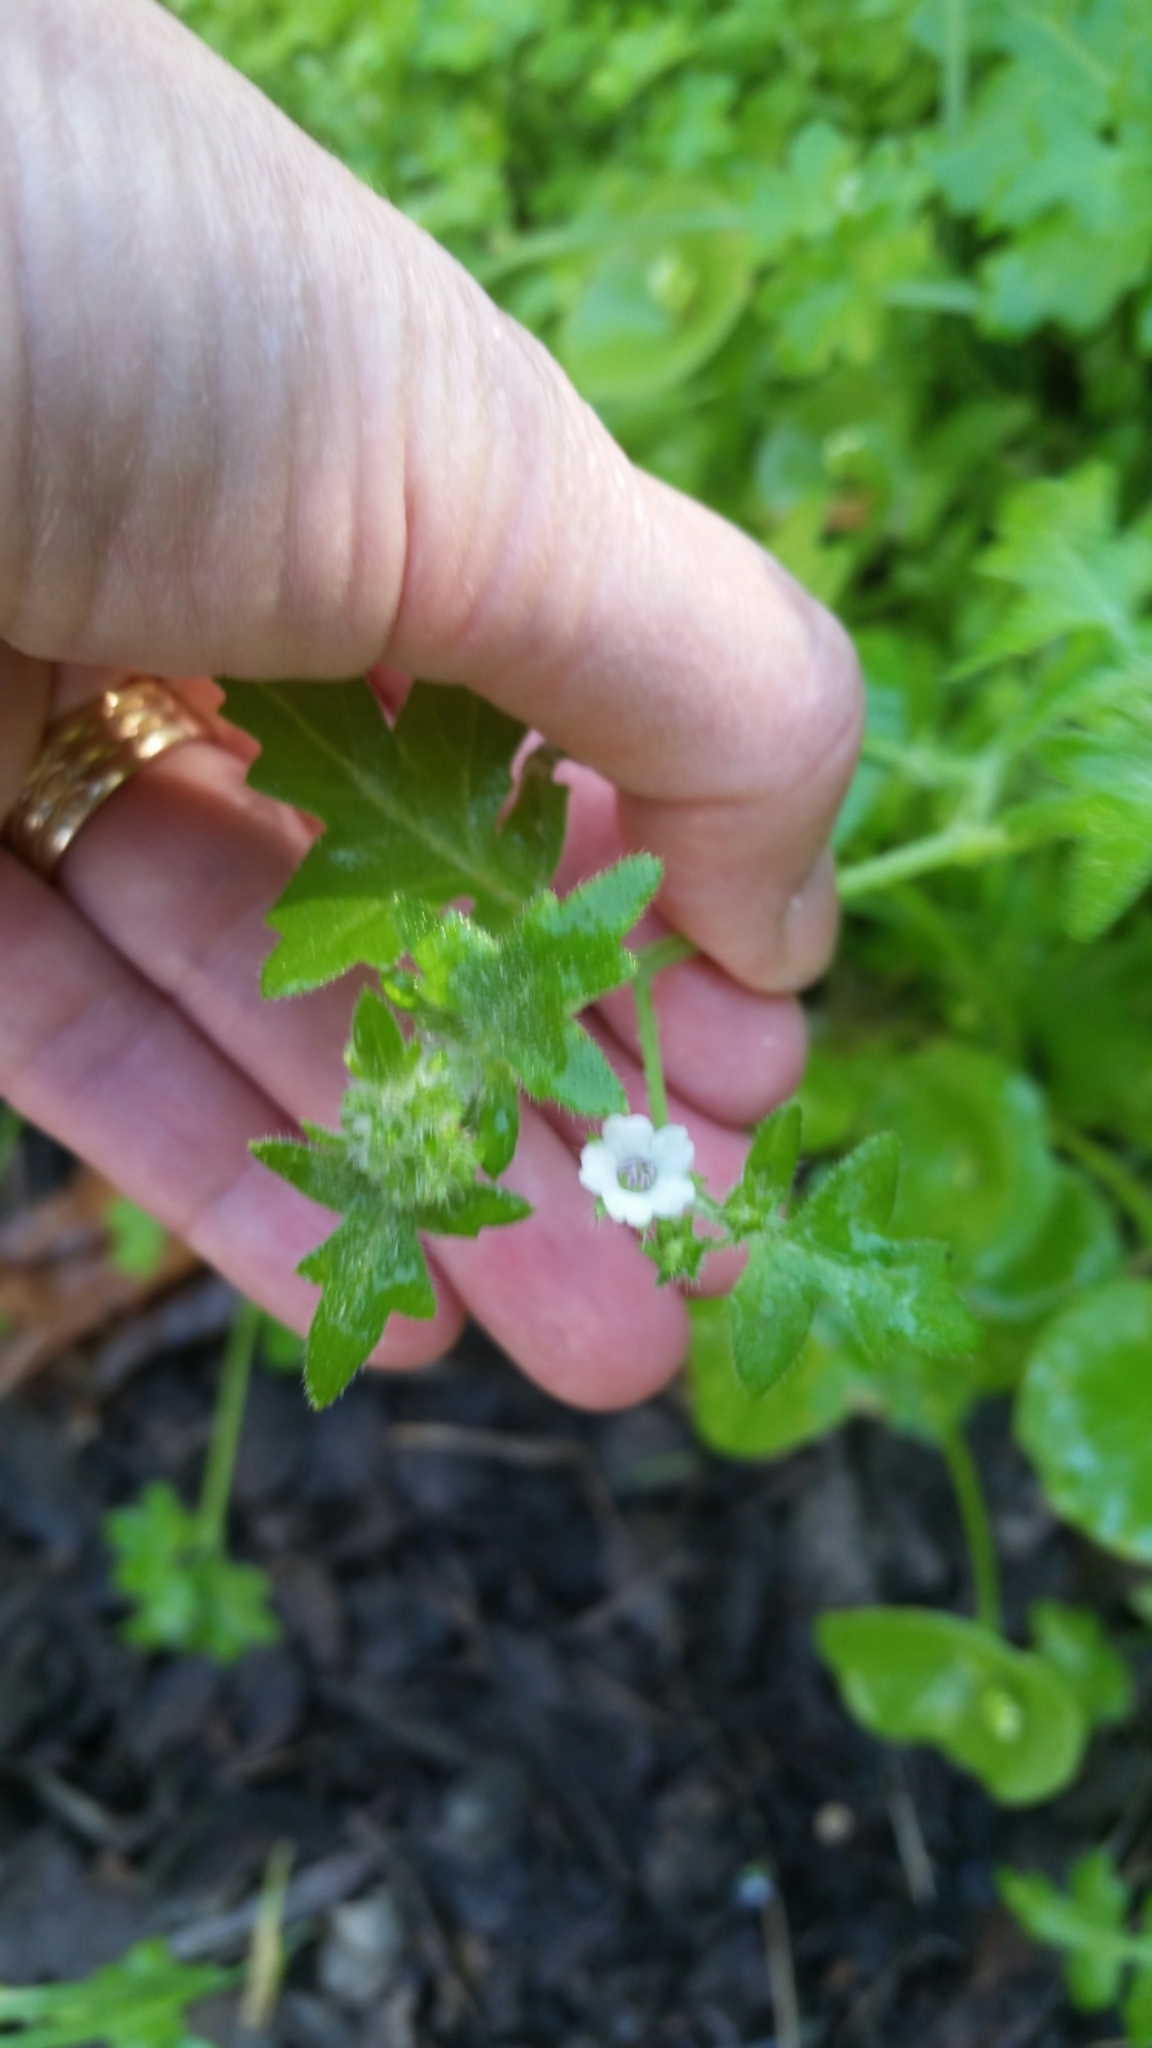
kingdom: Plantae
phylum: Tracheophyta
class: Magnoliopsida
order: Boraginales
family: Hydrophyllaceae
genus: Pholistoma
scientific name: Pholistoma racemosum
